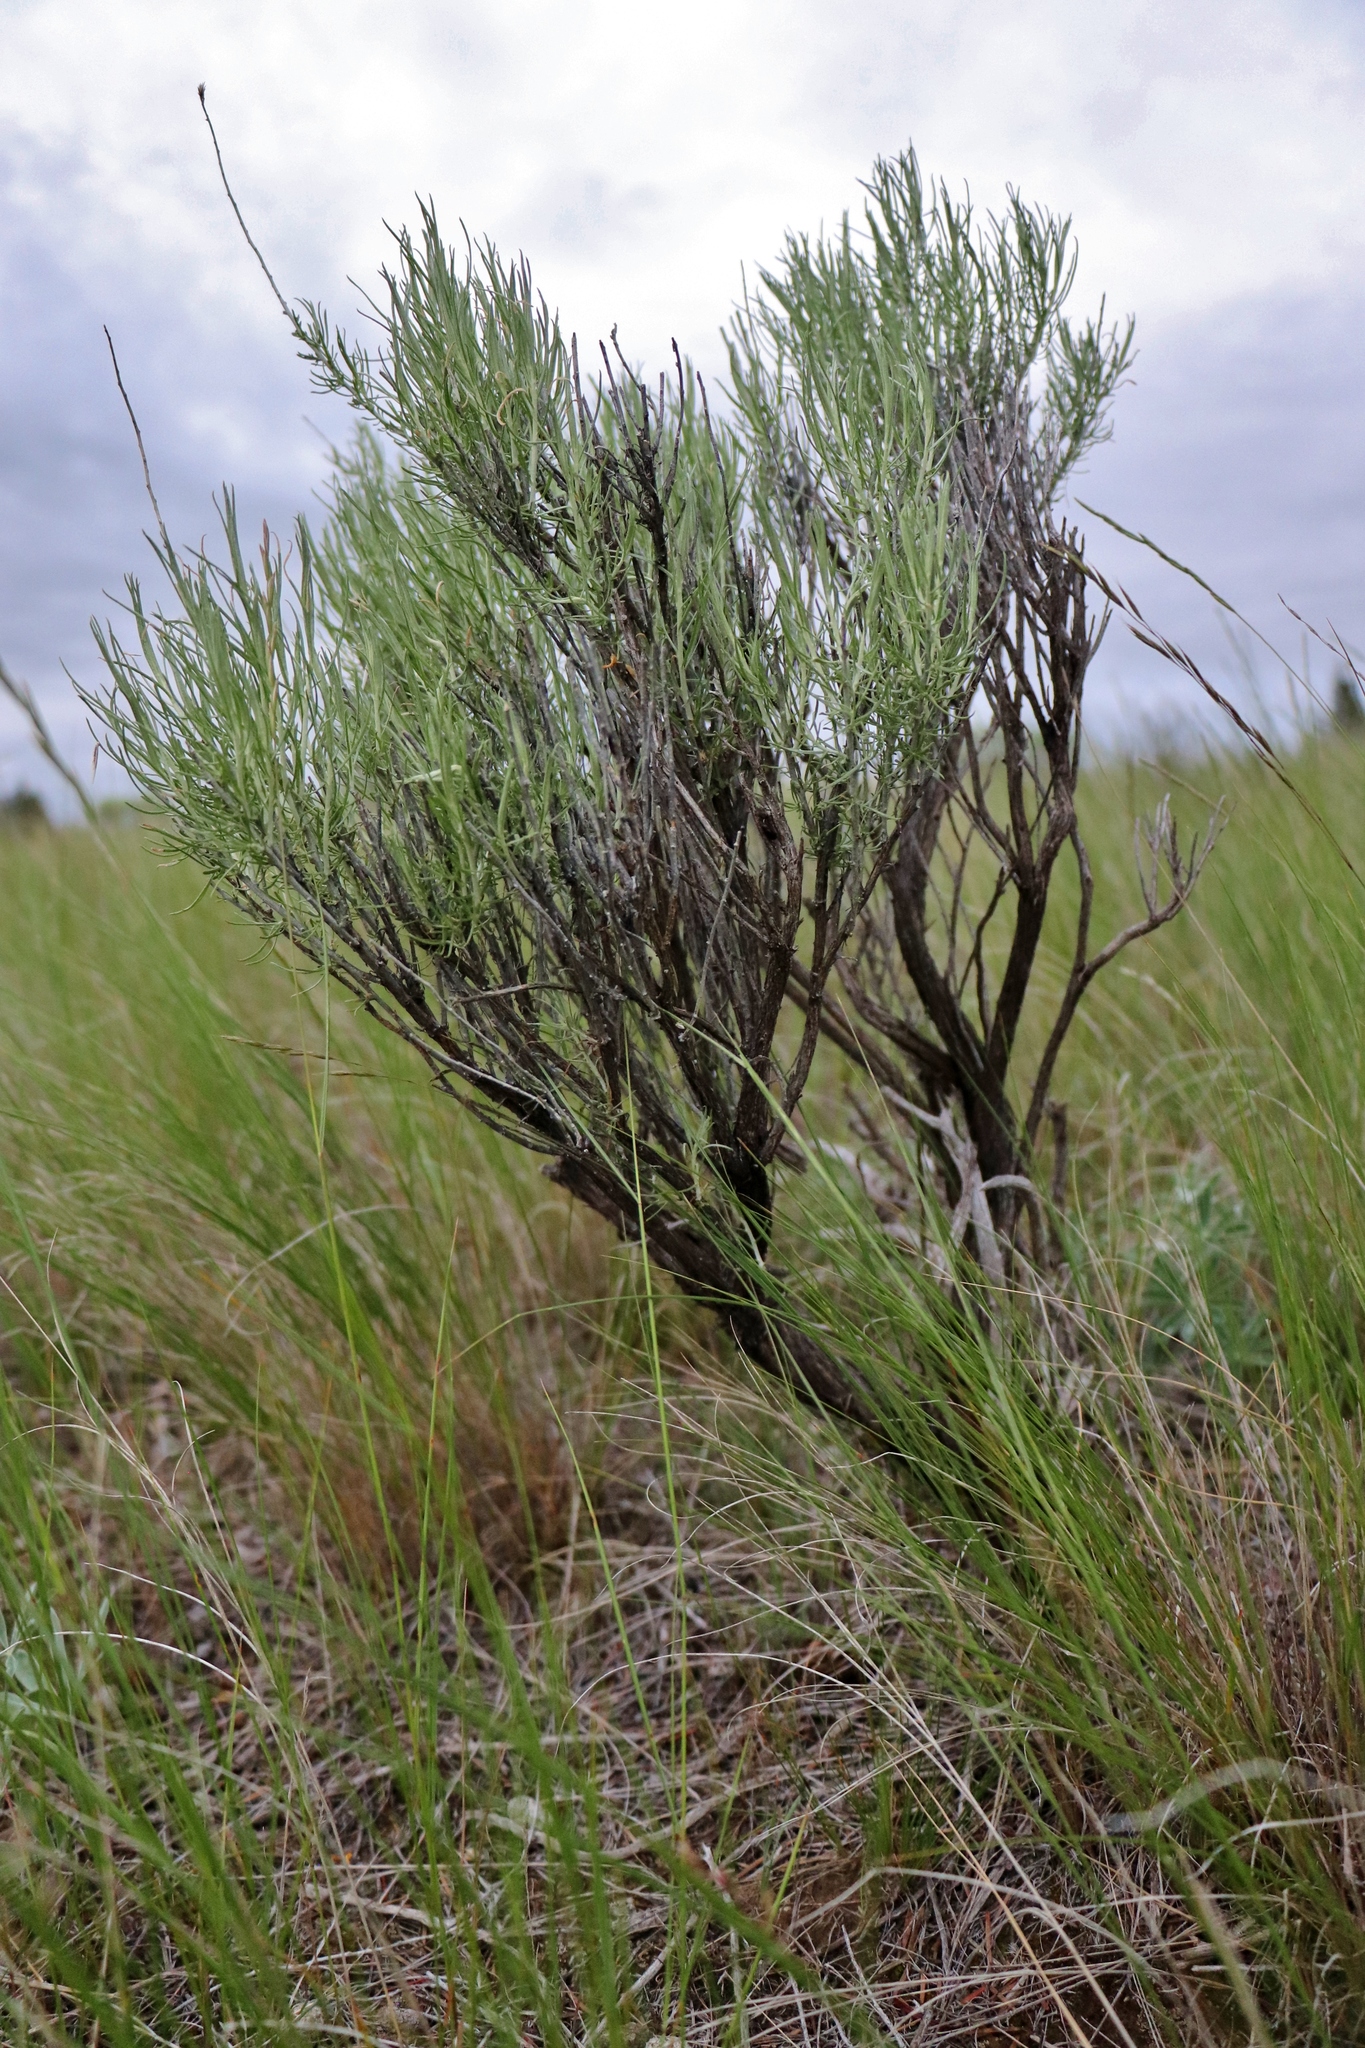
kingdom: Plantae
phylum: Tracheophyta
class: Magnoliopsida
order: Asterales
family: Asteraceae
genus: Ericameria
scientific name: Ericameria nauseosa
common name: Rubber rabbitbrush
